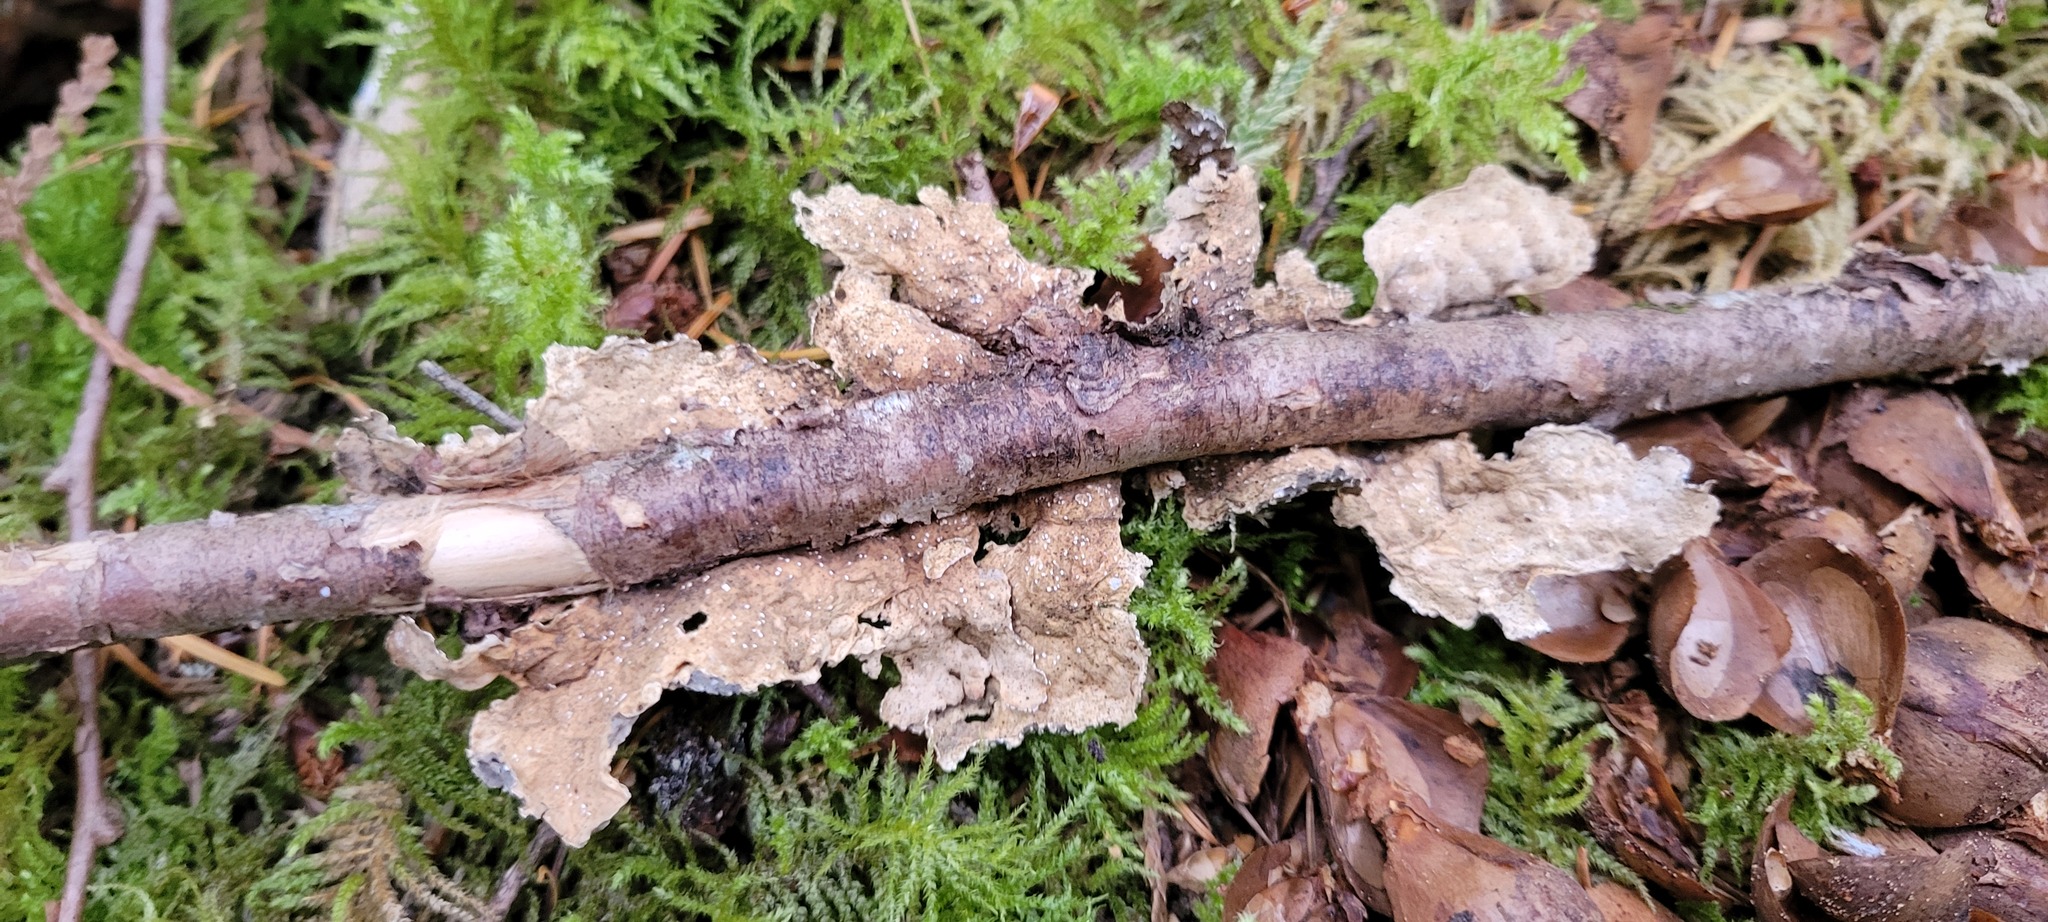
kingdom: Fungi
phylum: Ascomycota
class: Lecanoromycetes
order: Peltigerales
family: Lobariaceae
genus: Lobaria
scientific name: Lobaria anomala
